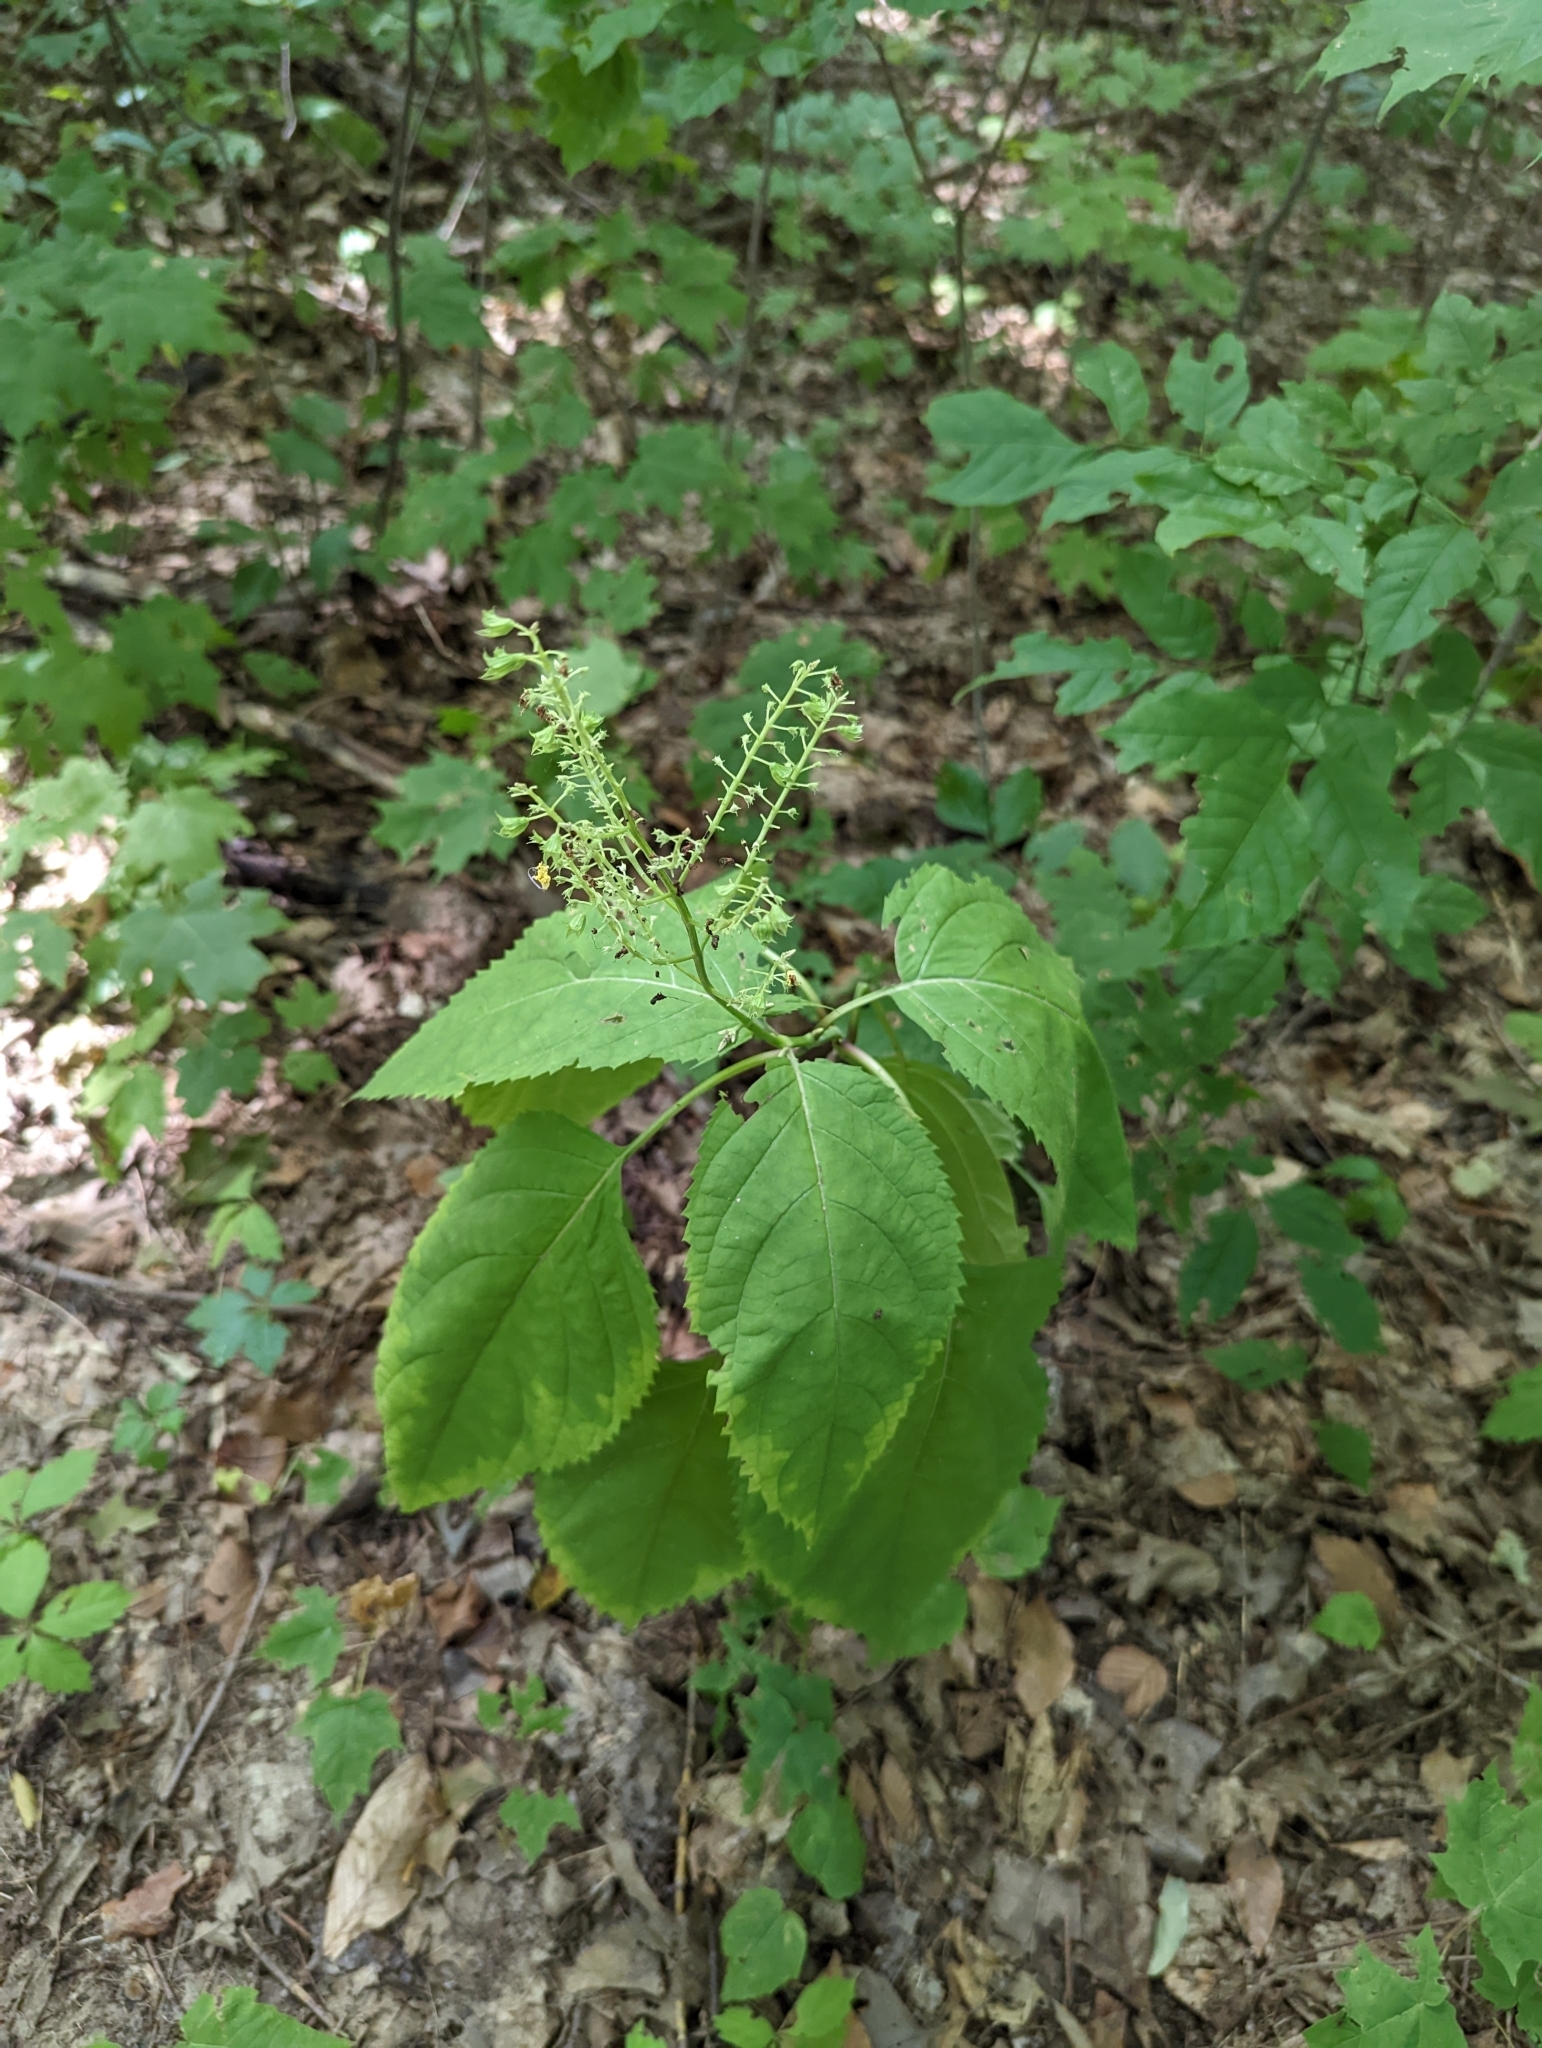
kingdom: Plantae
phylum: Tracheophyta
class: Magnoliopsida
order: Lamiales
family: Lamiaceae
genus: Collinsonia
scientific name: Collinsonia canadensis
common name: Northern horsebalm
